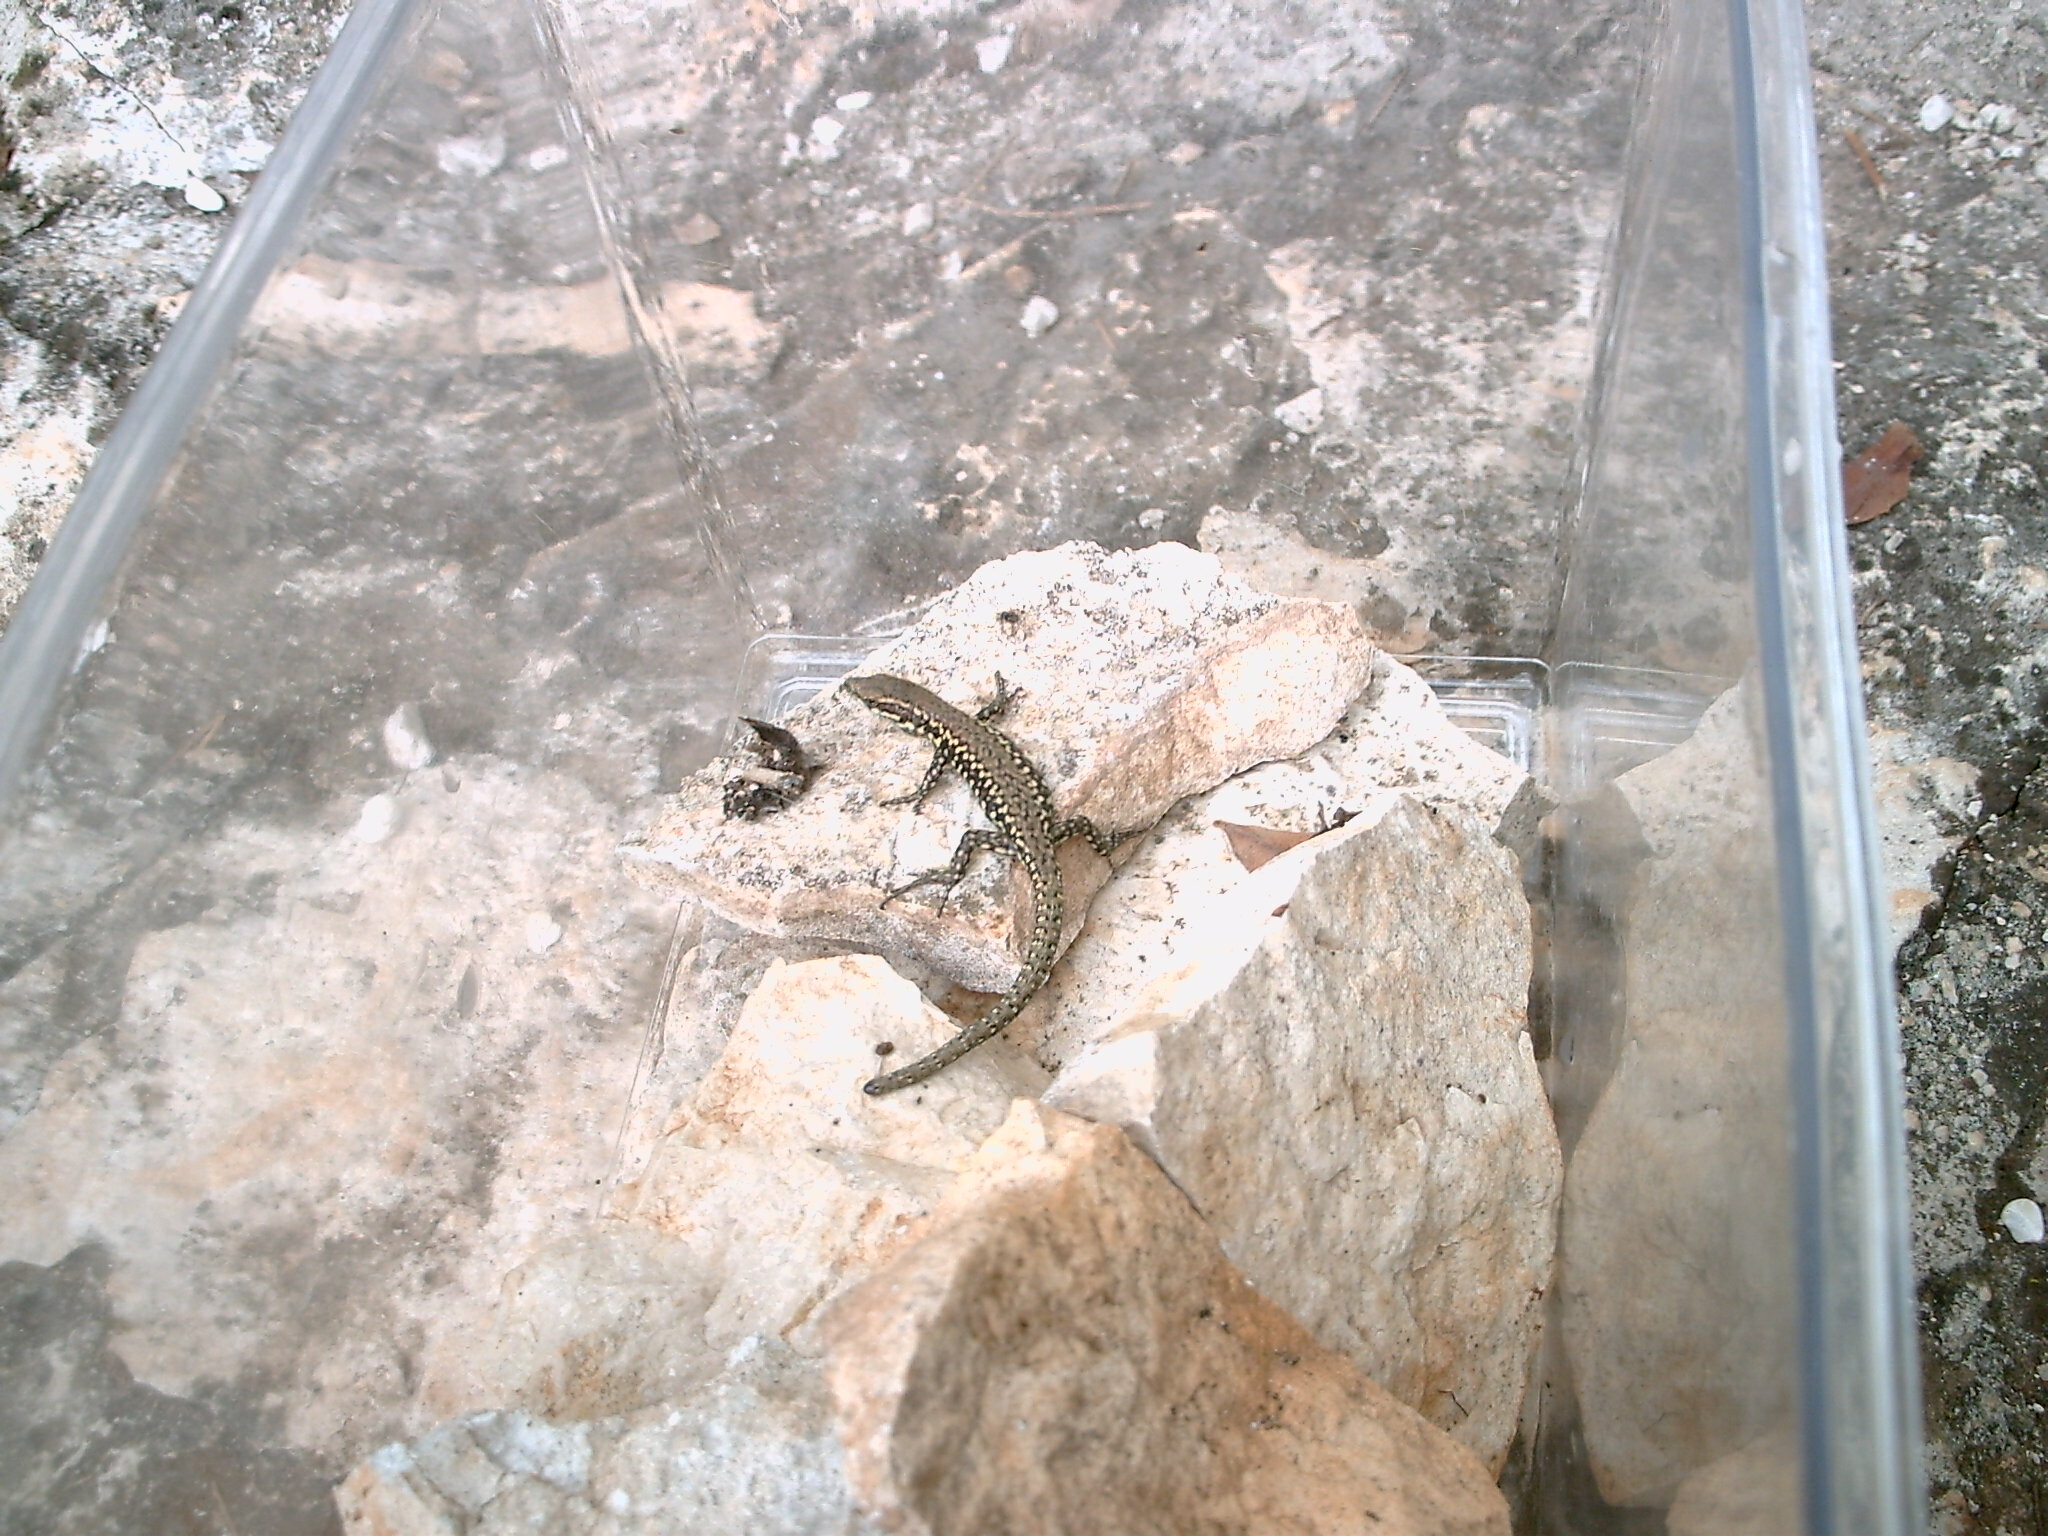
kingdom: Animalia
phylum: Chordata
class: Squamata
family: Lacertidae
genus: Podarcis
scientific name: Podarcis muralis
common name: Common wall lizard
